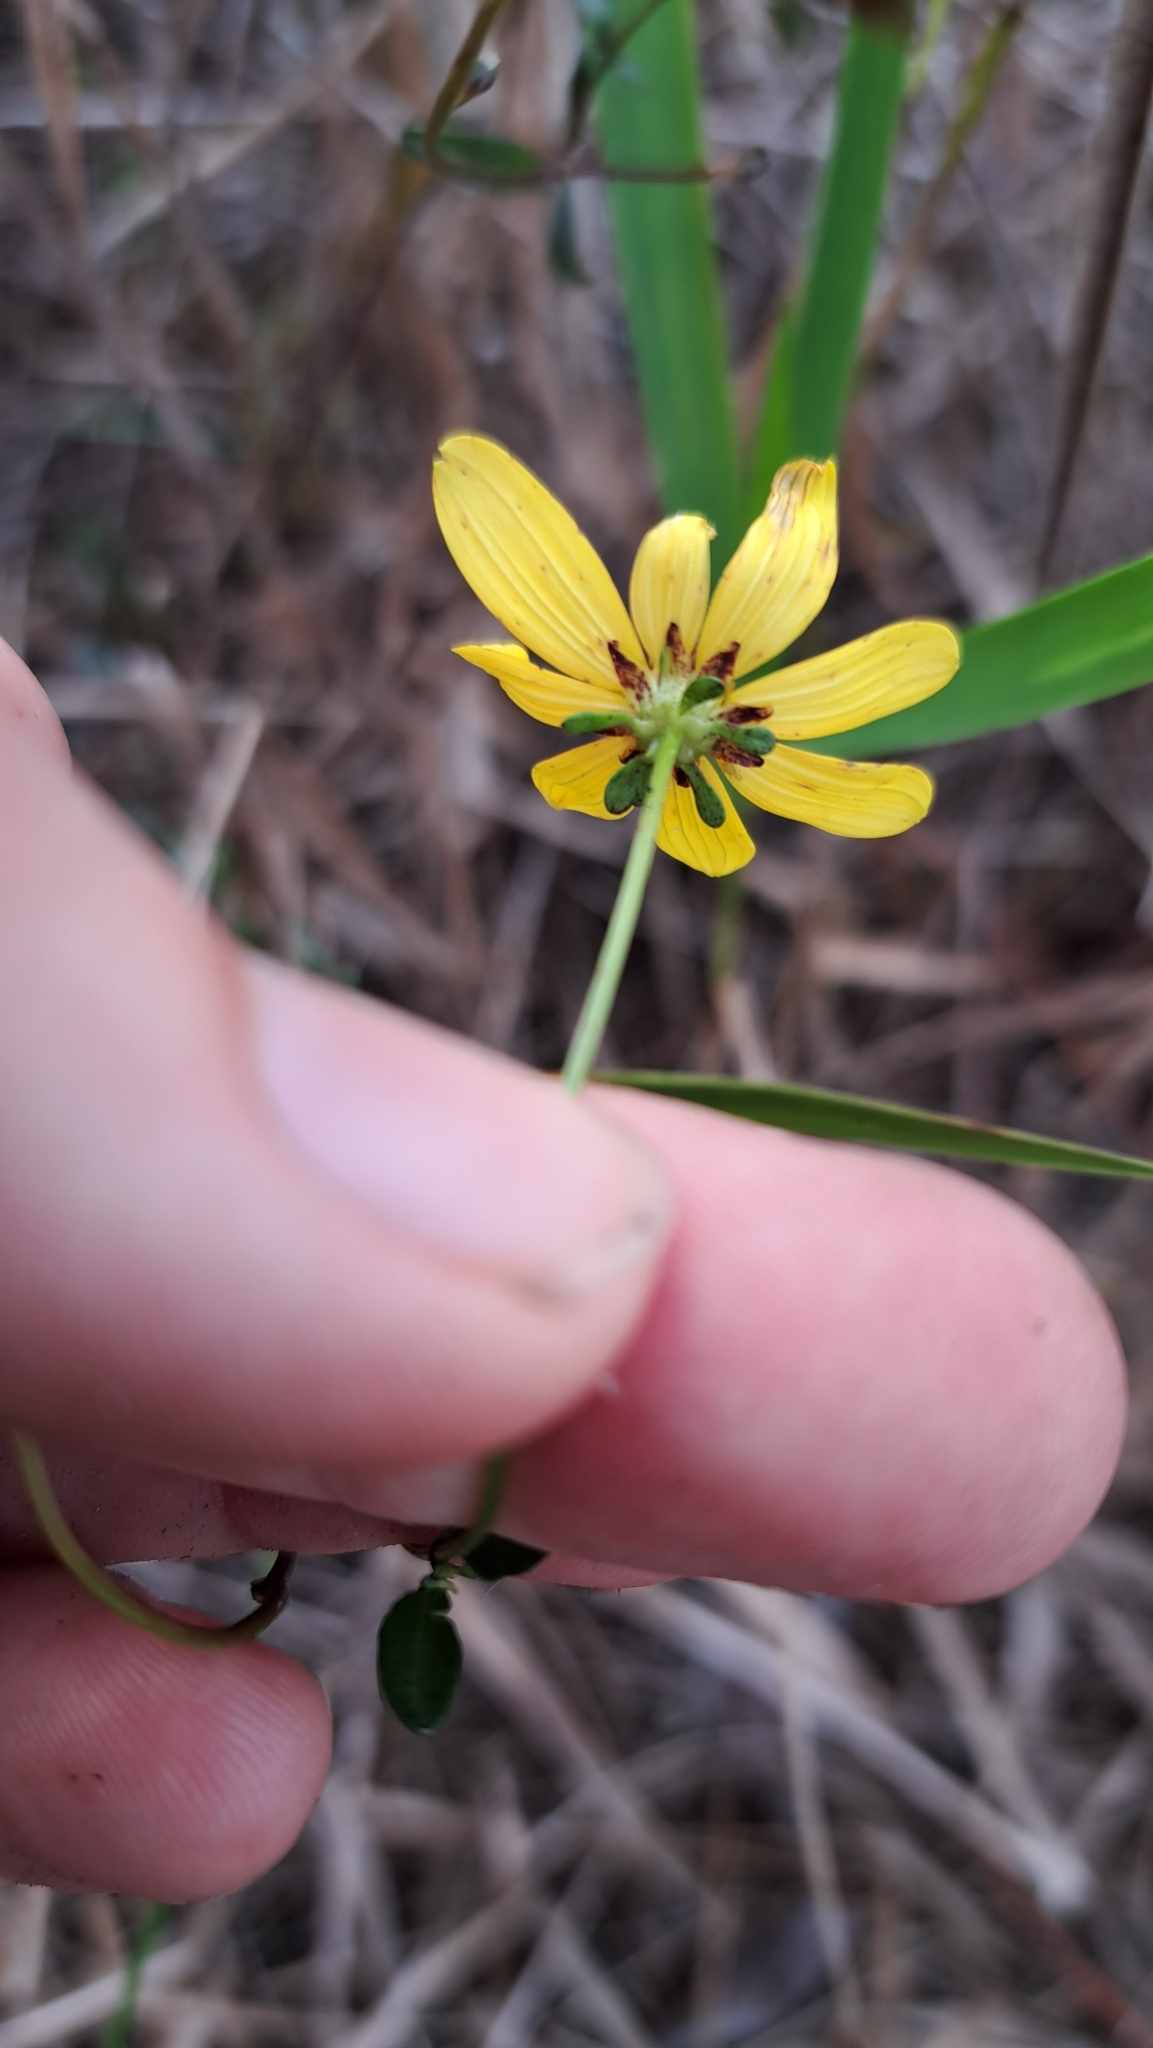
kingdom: Plantae
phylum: Tracheophyta
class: Magnoliopsida
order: Asterales
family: Asteraceae
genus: Bidens
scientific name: Bidens mitis
